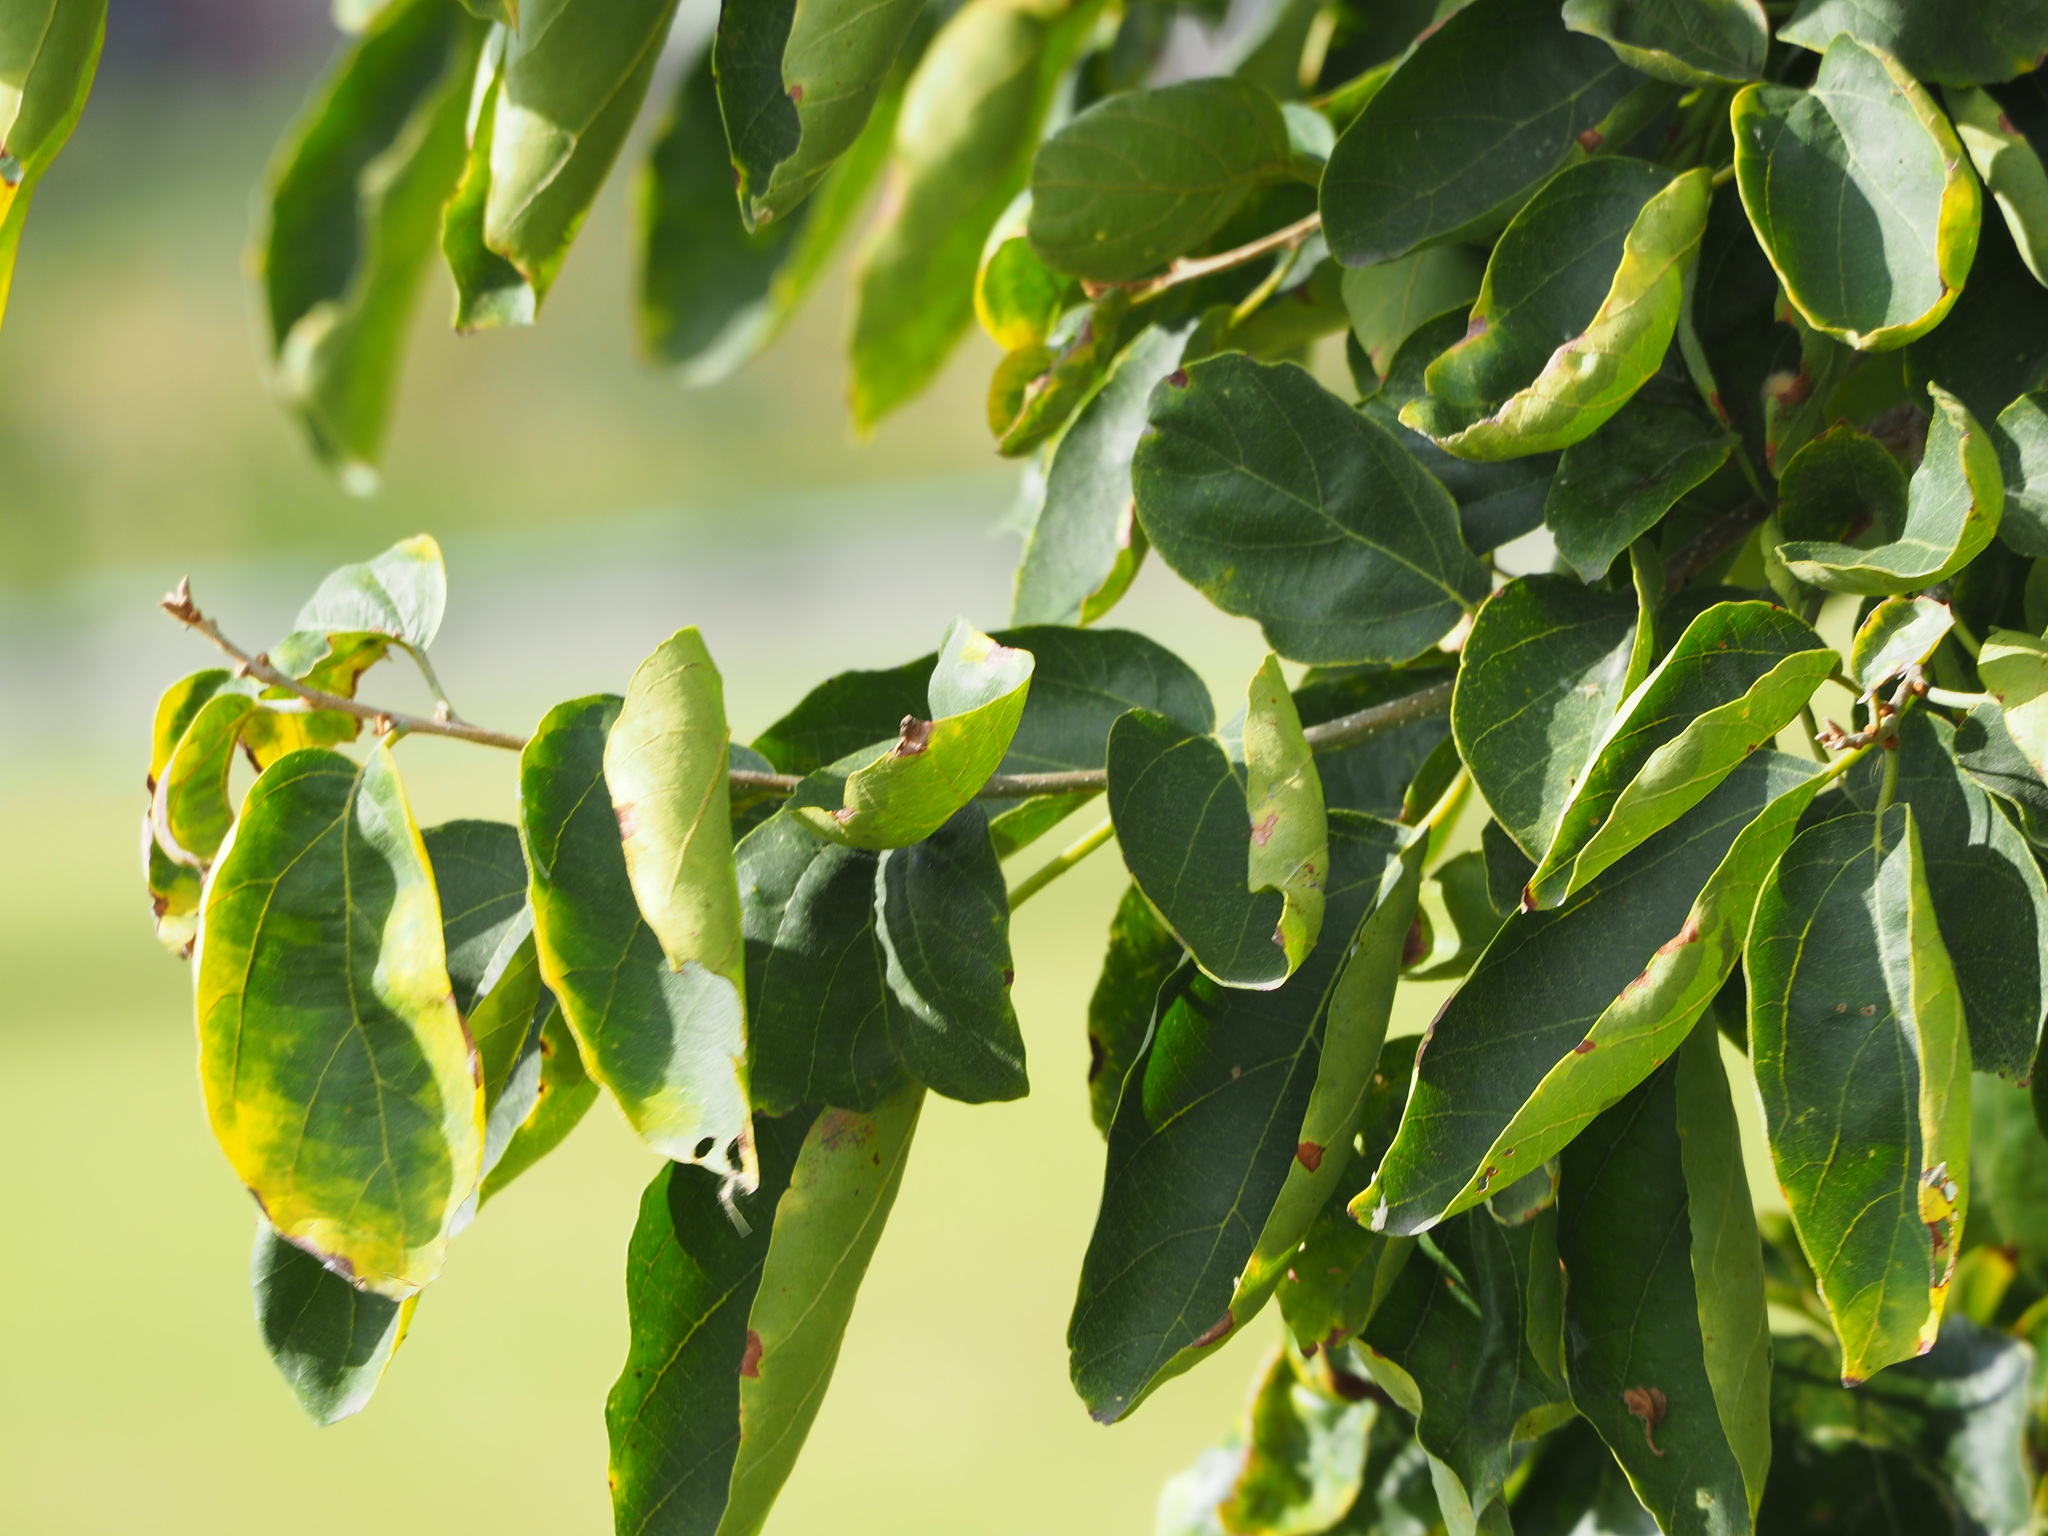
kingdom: Plantae
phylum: Tracheophyta
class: Magnoliopsida
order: Boraginales
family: Cordiaceae
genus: Cordia
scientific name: Cordia dichotoma
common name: Fragrant manjack
